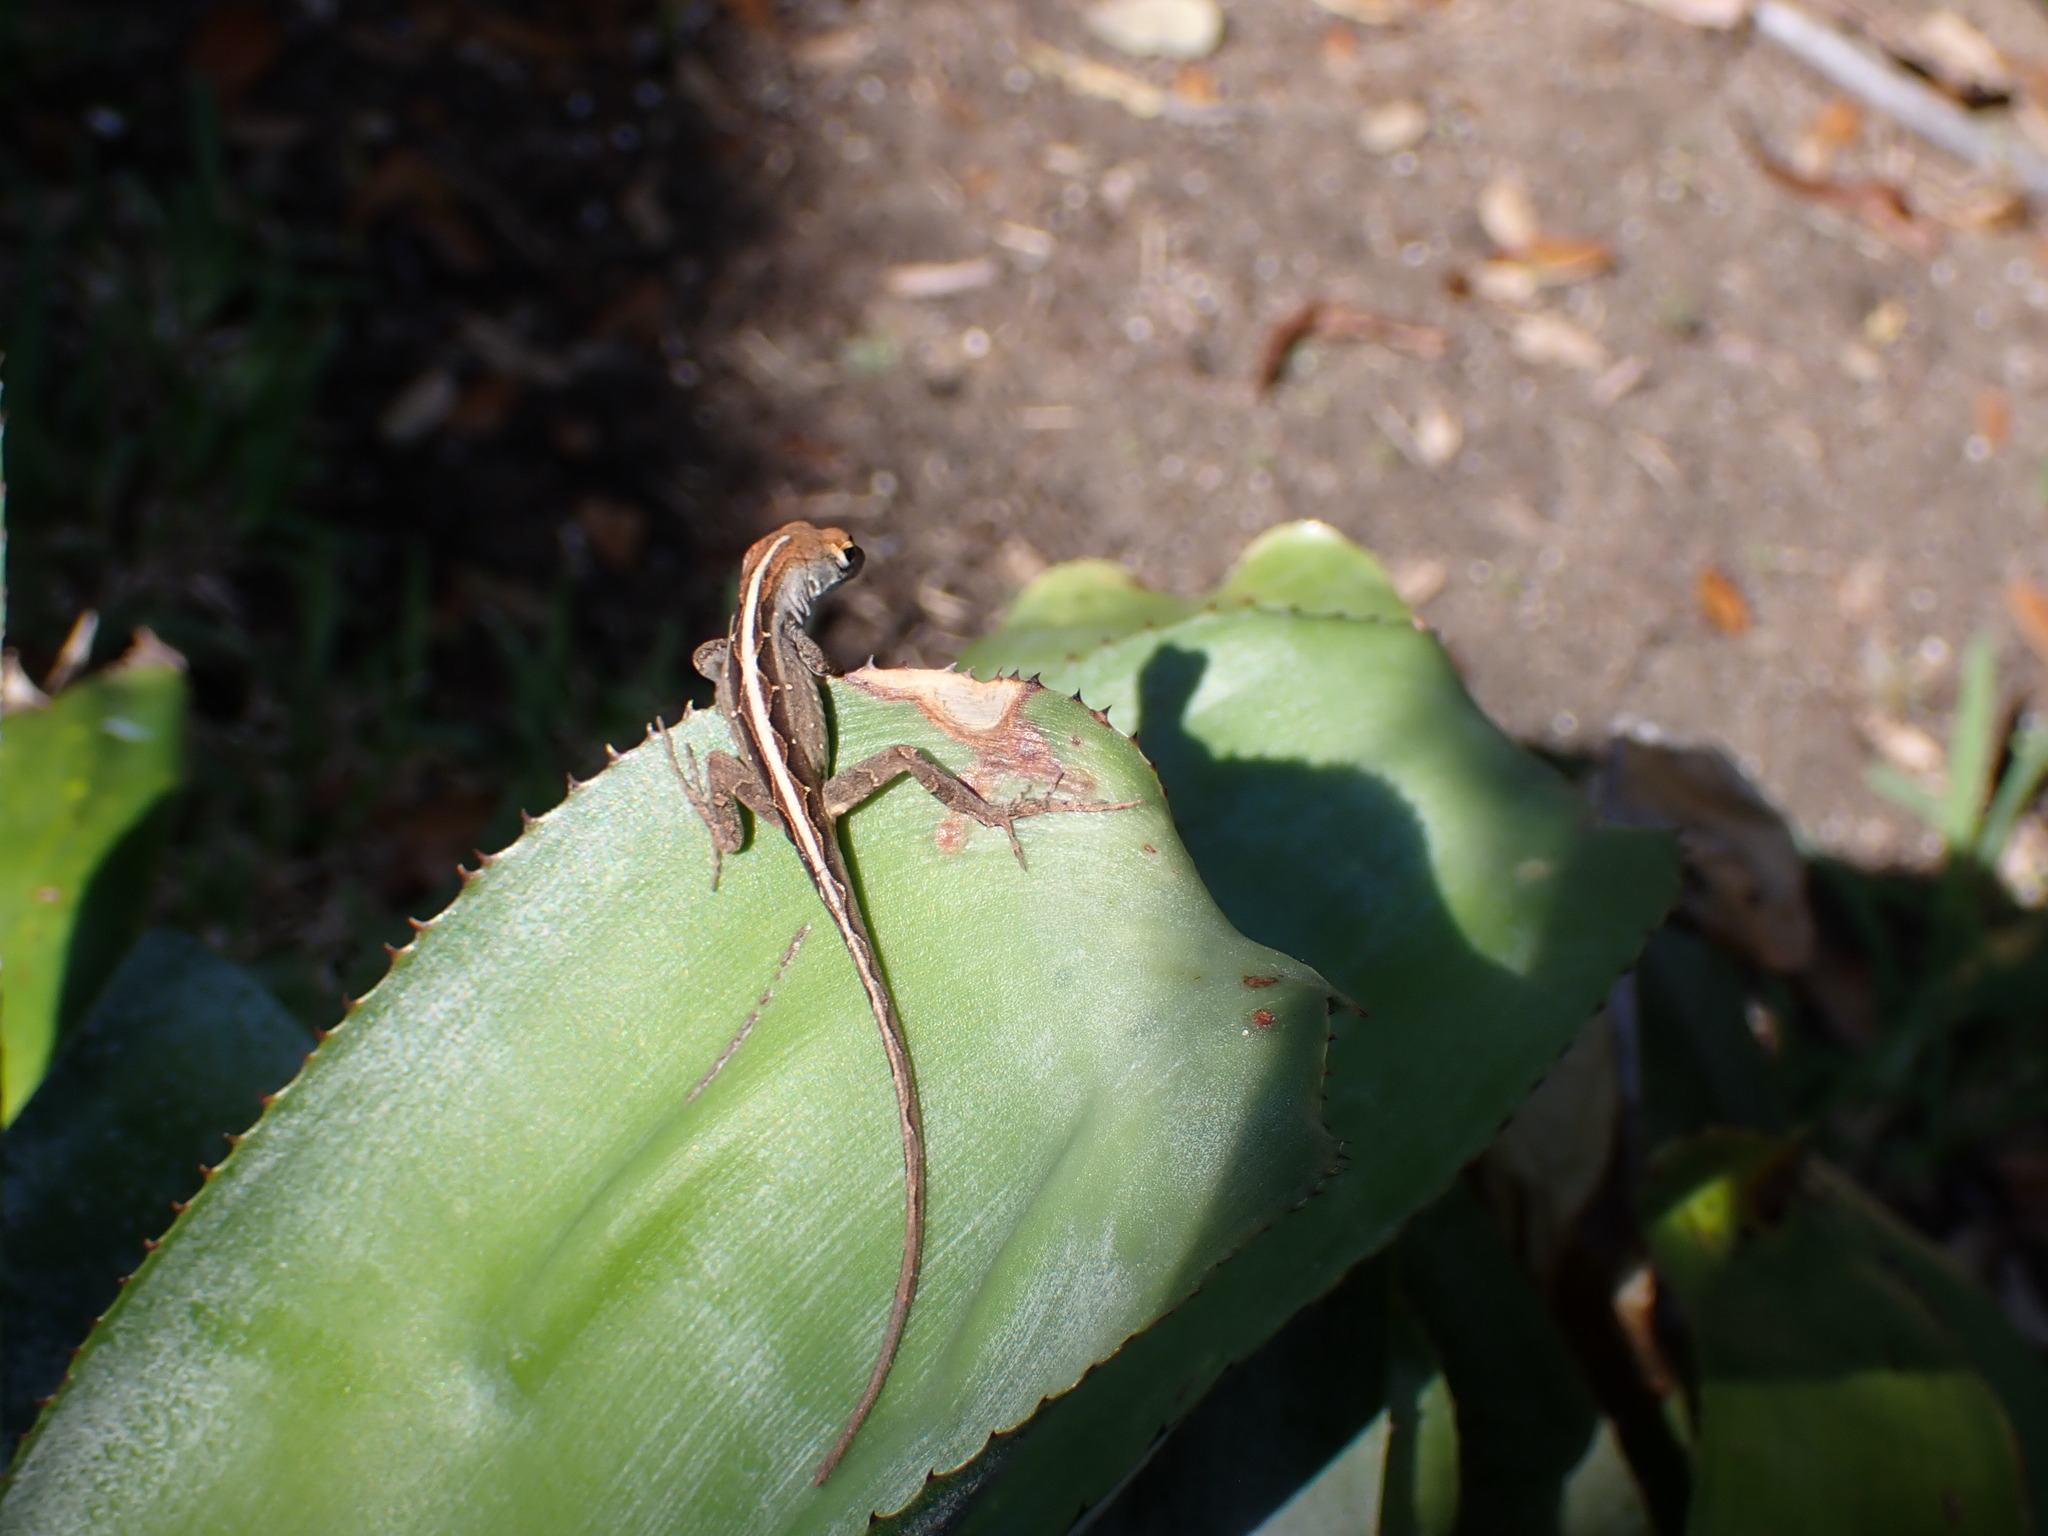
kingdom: Animalia
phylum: Chordata
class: Squamata
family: Dactyloidae
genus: Anolis
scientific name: Anolis sagrei
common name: Brown anole
